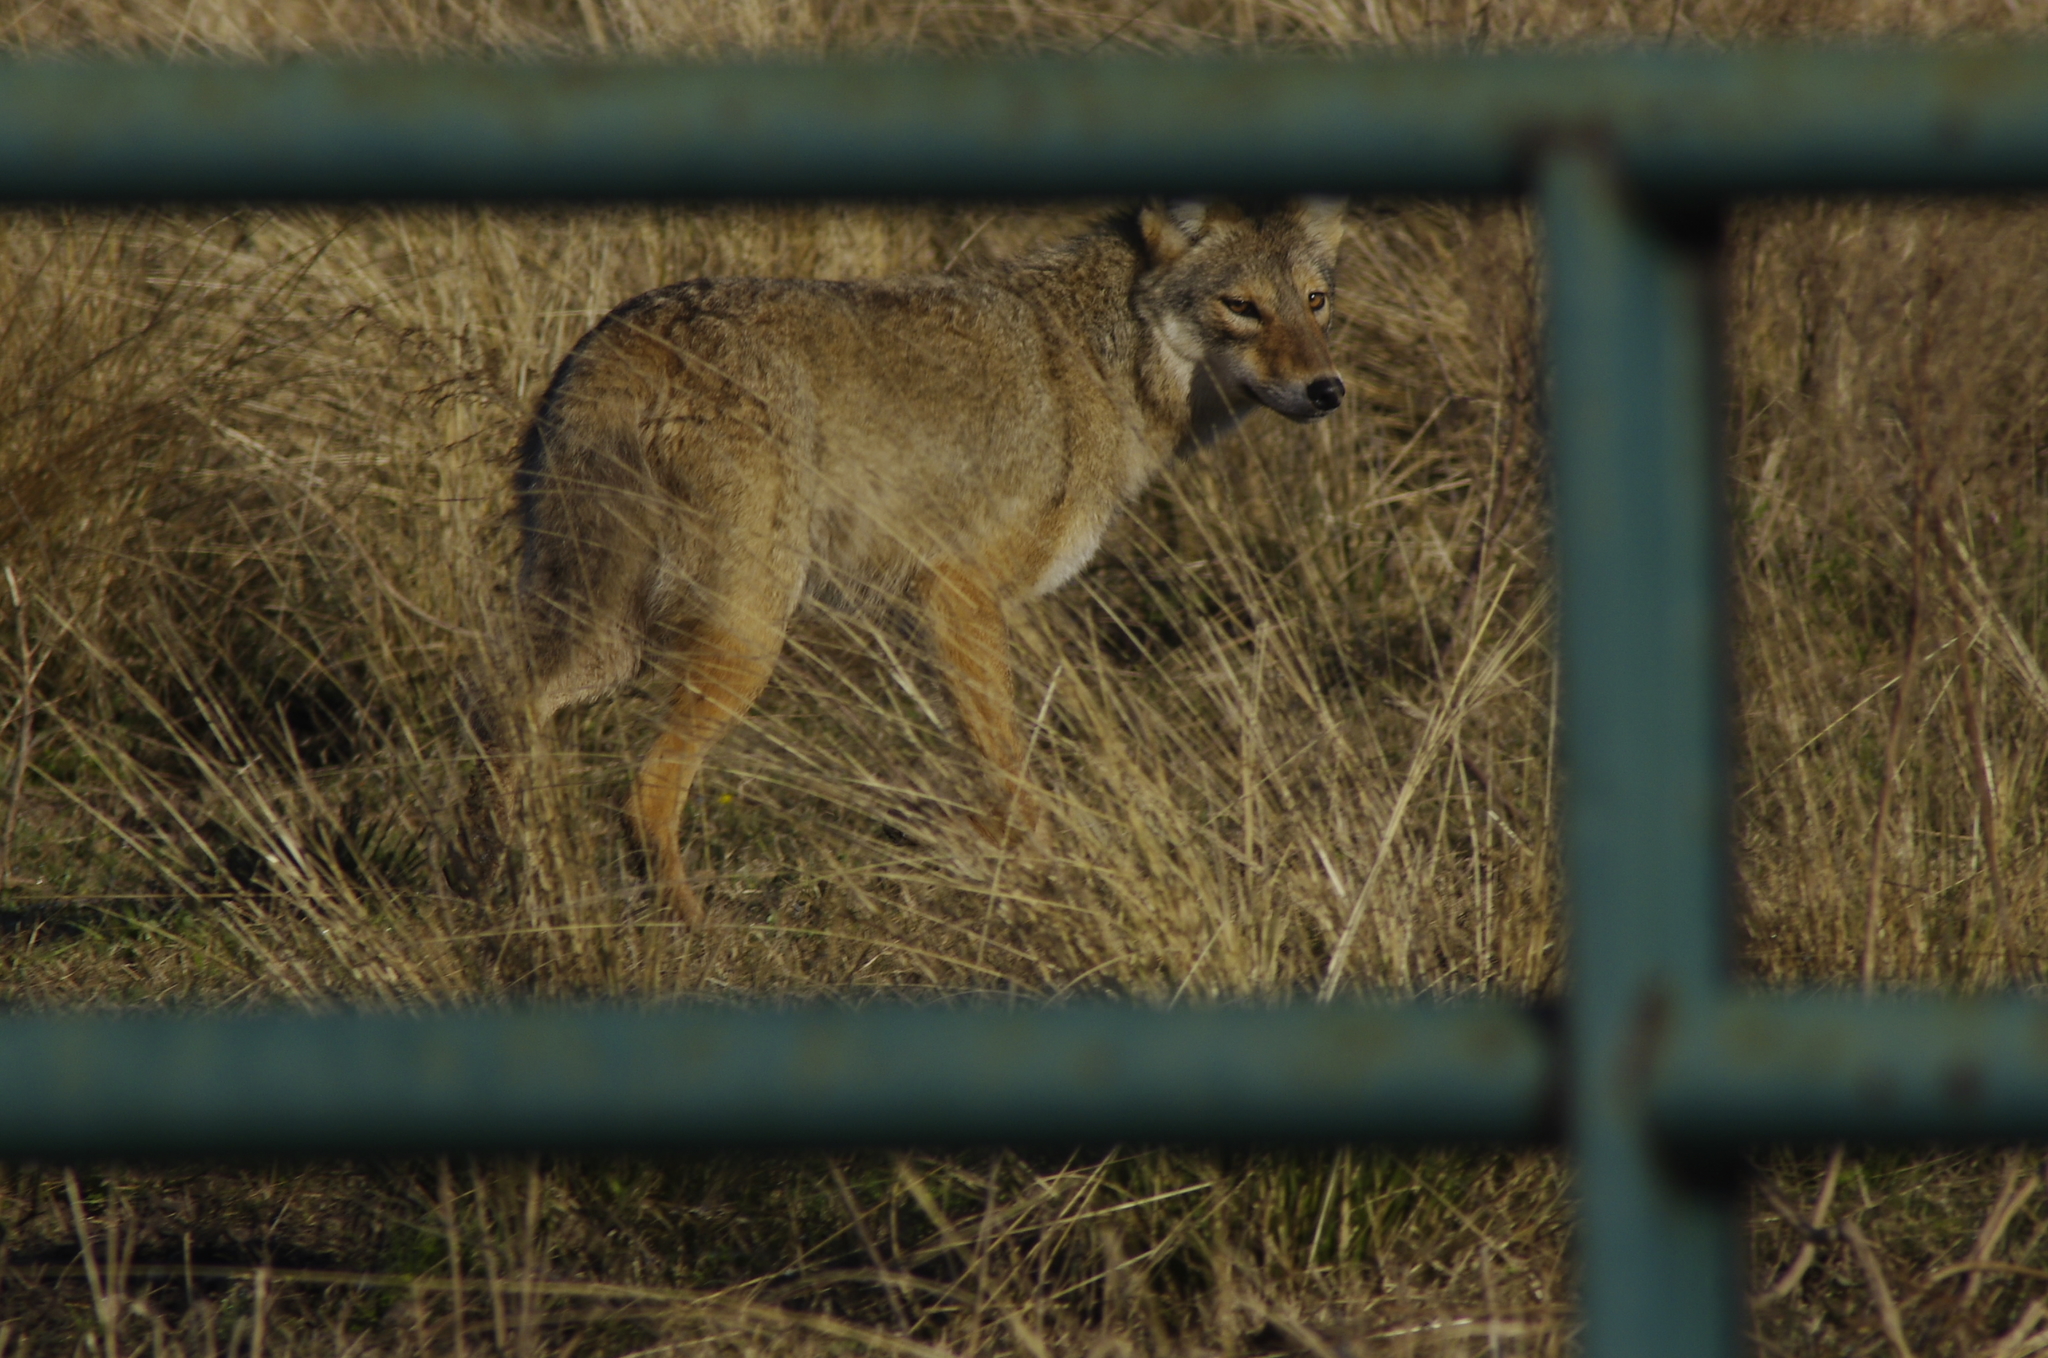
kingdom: Animalia
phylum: Chordata
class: Mammalia
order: Carnivora
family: Canidae
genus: Canis
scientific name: Canis latrans
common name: Coyote
